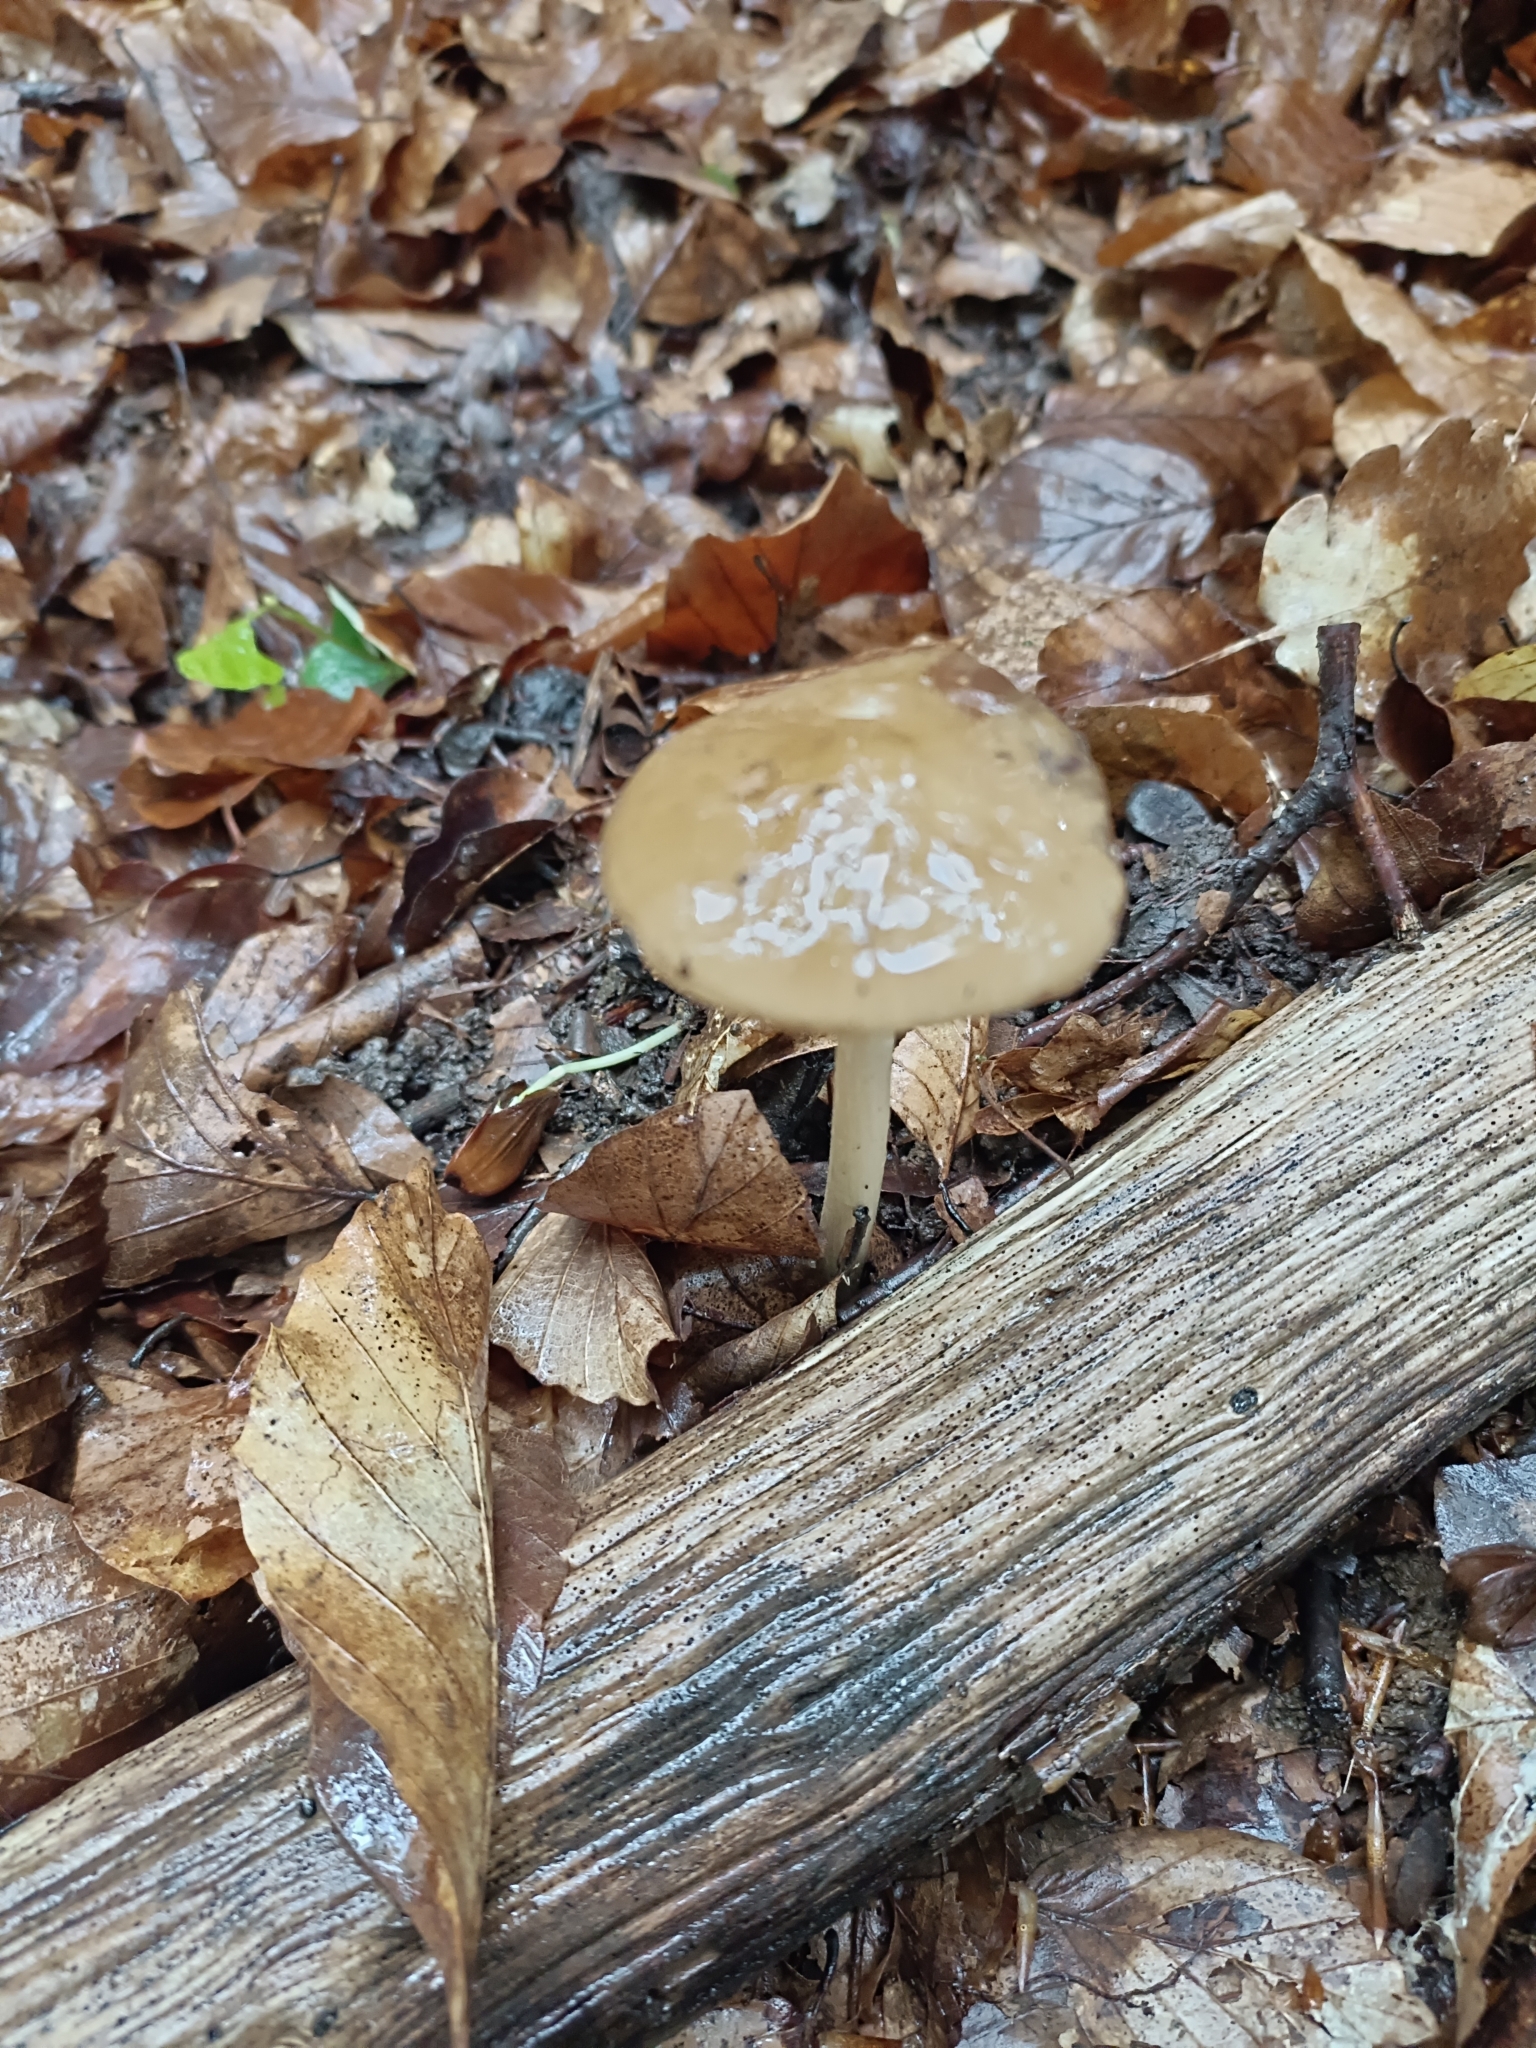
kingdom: Fungi
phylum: Basidiomycota
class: Agaricomycetes
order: Agaricales
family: Physalacriaceae
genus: Hymenopellis
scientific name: Hymenopellis radicata
